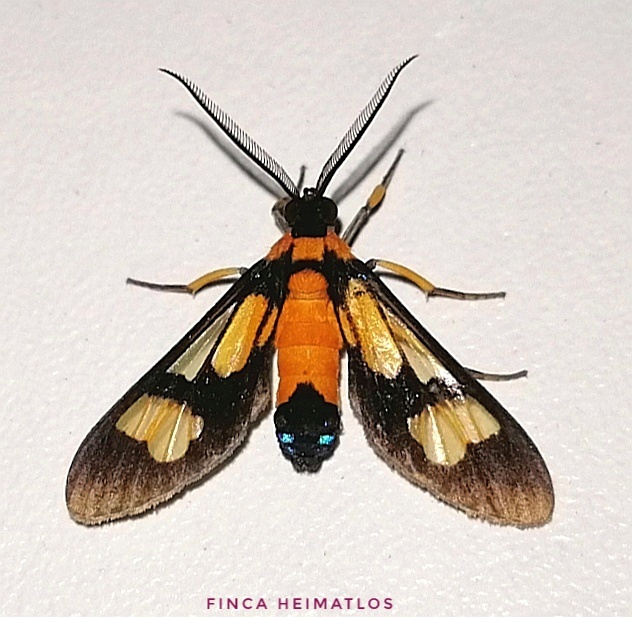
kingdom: Animalia
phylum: Arthropoda
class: Insecta
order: Lepidoptera
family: Erebidae
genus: Leucotmemis
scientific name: Leucotmemis tenthredoides
